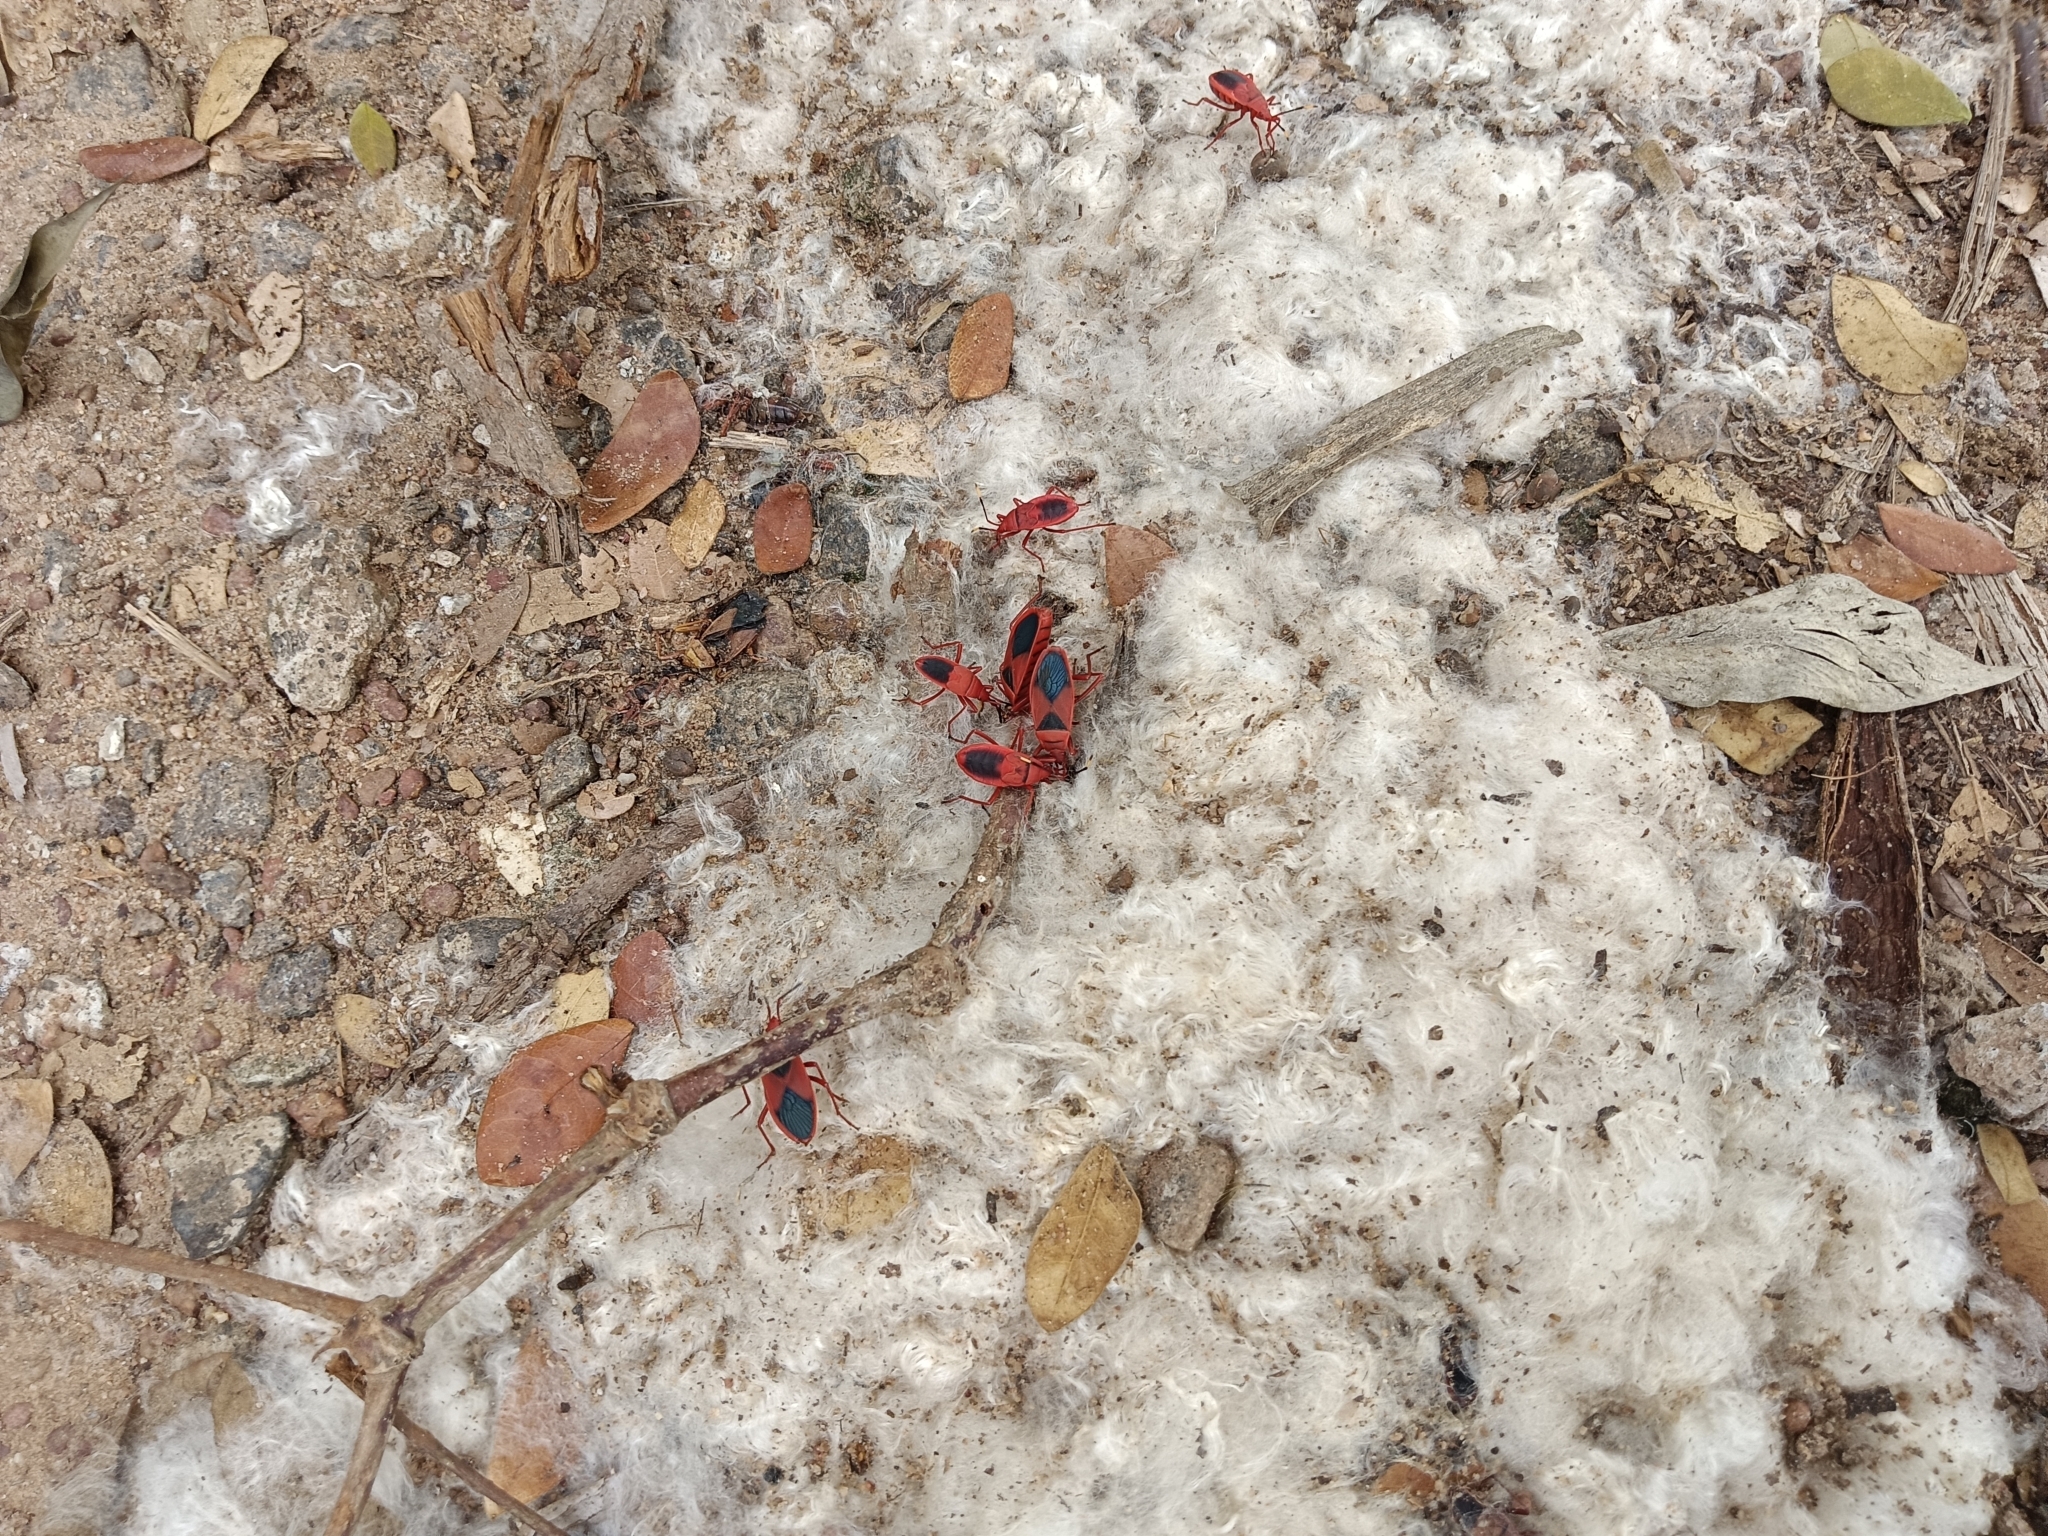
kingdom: Animalia
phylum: Arthropoda
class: Insecta
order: Hemiptera
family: Pyrrhocoridae
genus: Probergrothius
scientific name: Probergrothius
